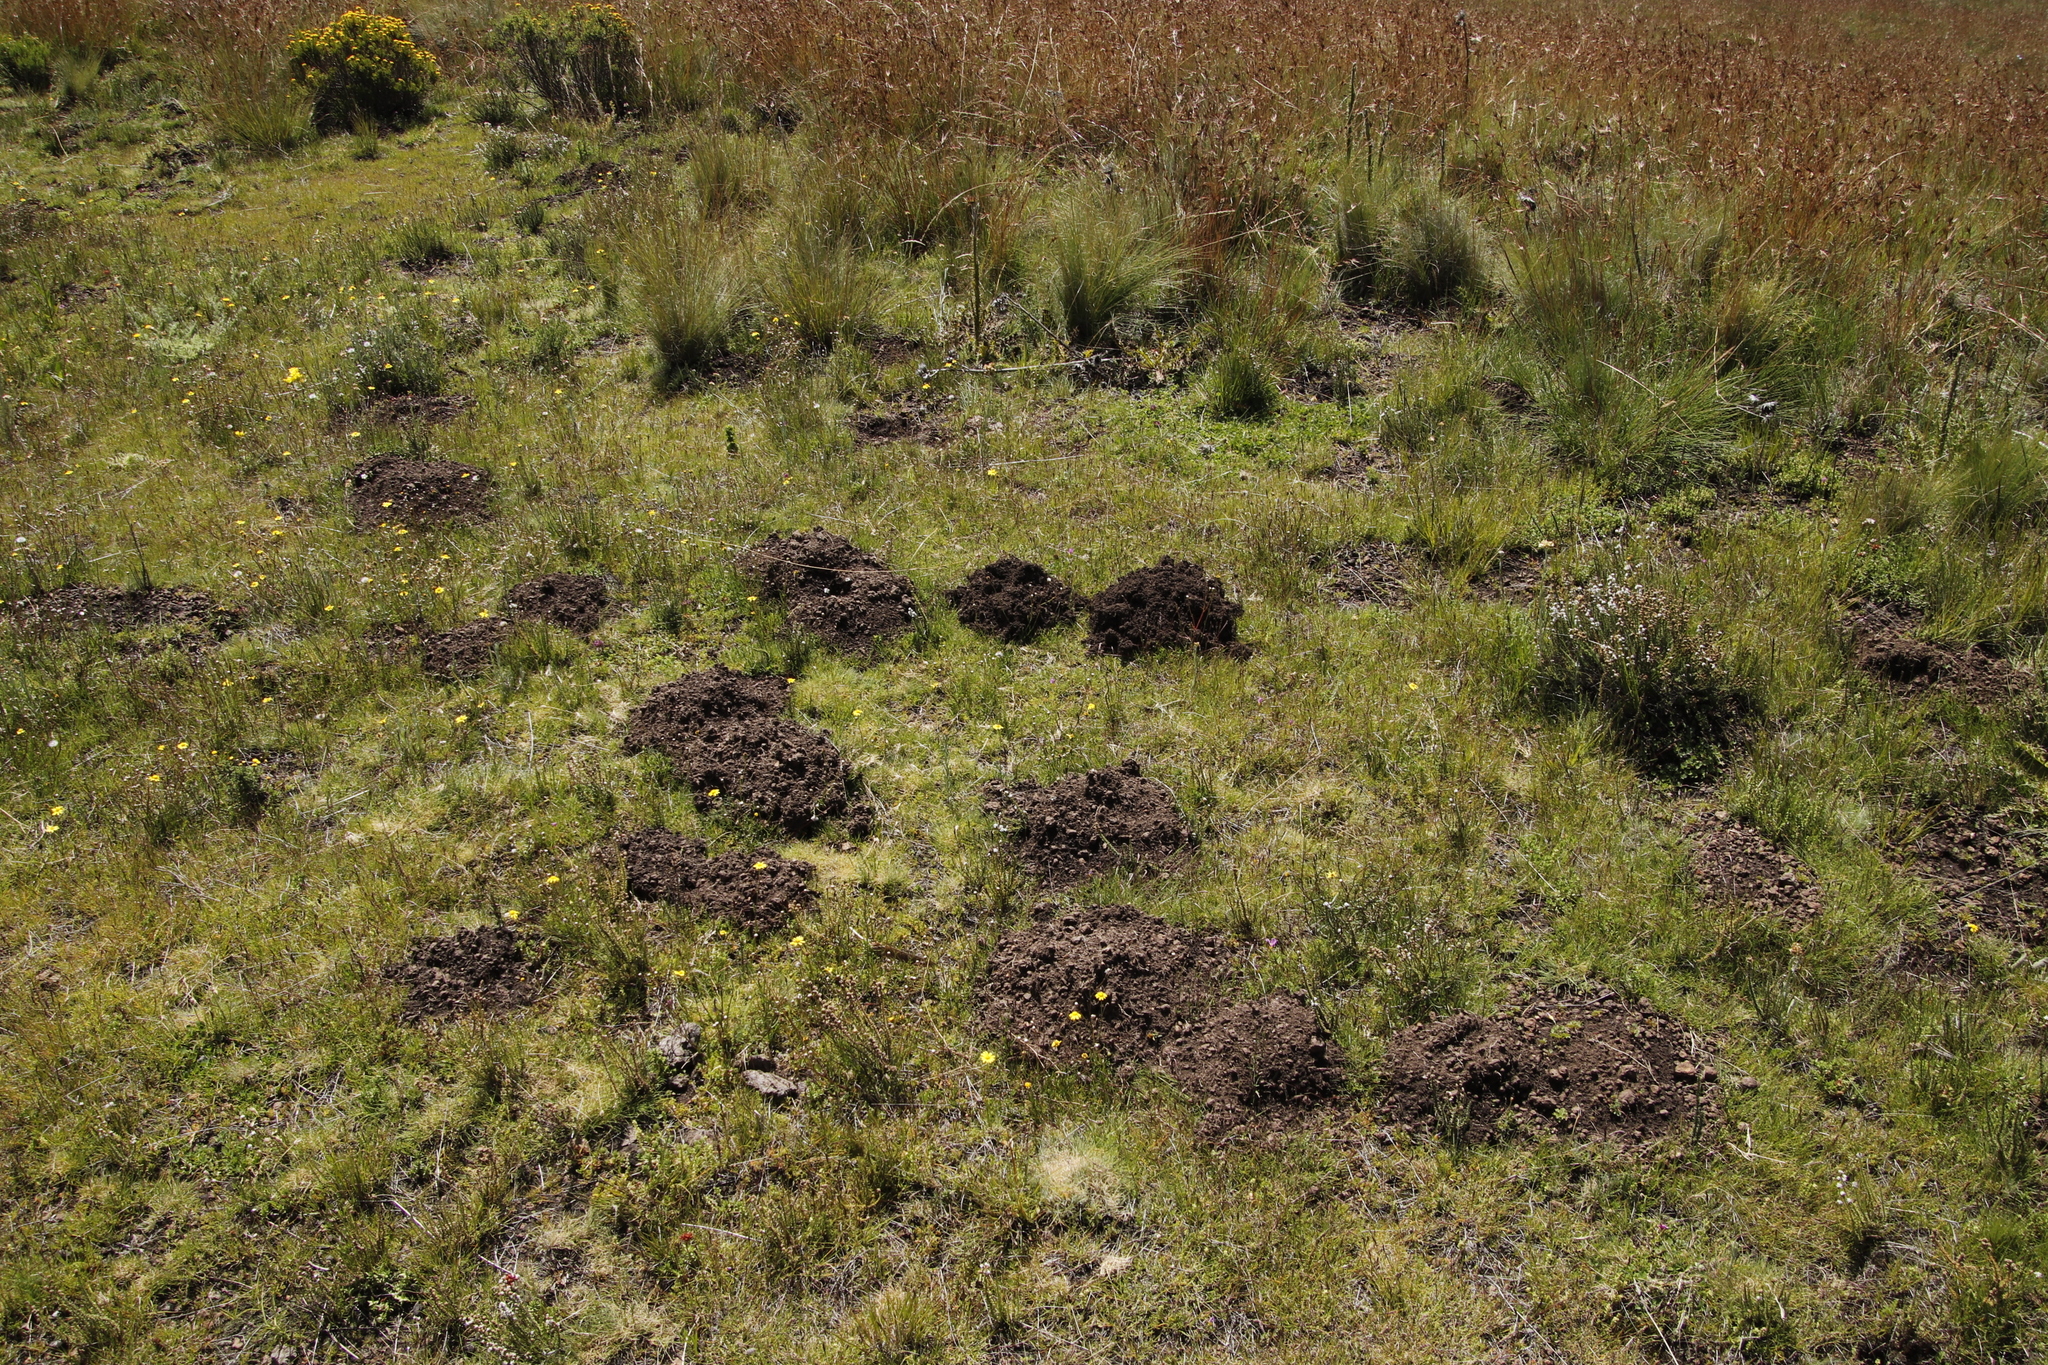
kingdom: Animalia
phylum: Chordata
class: Mammalia
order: Rodentia
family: Bathyergidae
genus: Cryptomys
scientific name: Cryptomys hottentotus
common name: Southern african mole-rat
